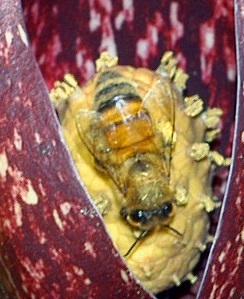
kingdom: Animalia
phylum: Arthropoda
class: Insecta
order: Hymenoptera
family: Apidae
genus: Apis
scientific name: Apis mellifera
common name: Honey bee
